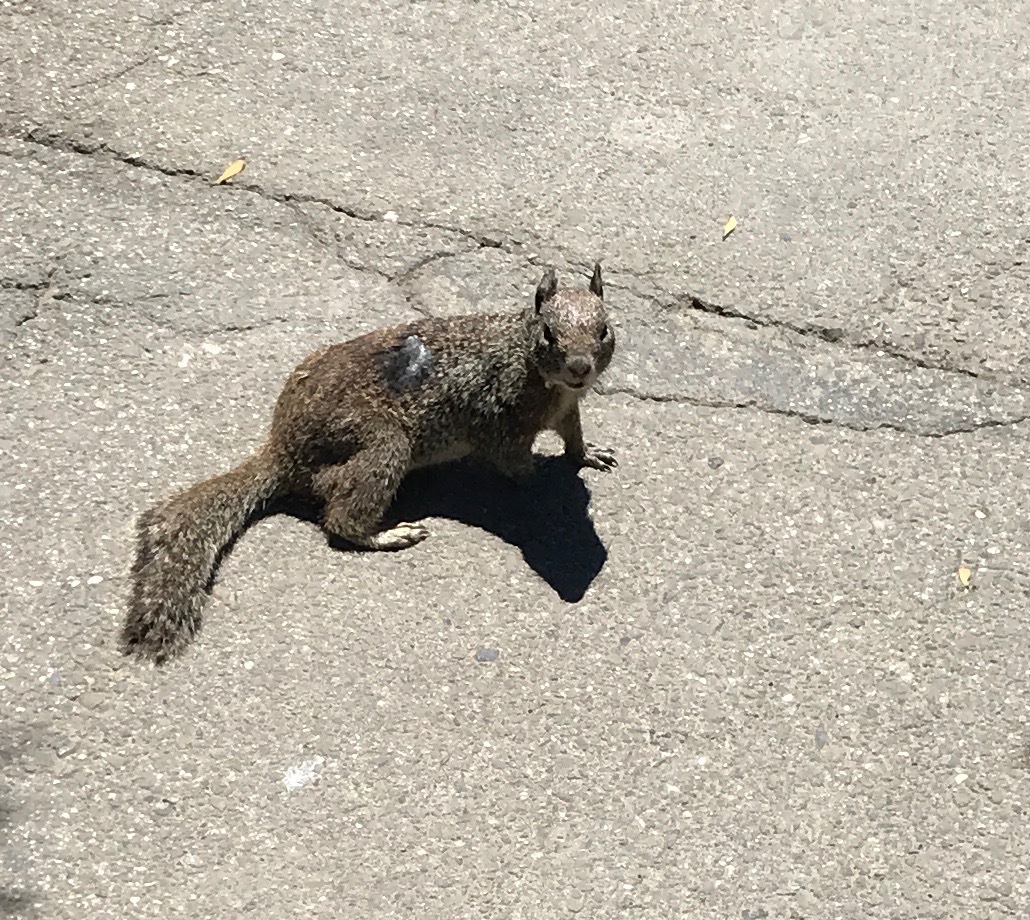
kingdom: Animalia
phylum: Chordata
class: Mammalia
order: Rodentia
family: Sciuridae
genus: Otospermophilus
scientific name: Otospermophilus beecheyi
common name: California ground squirrel
